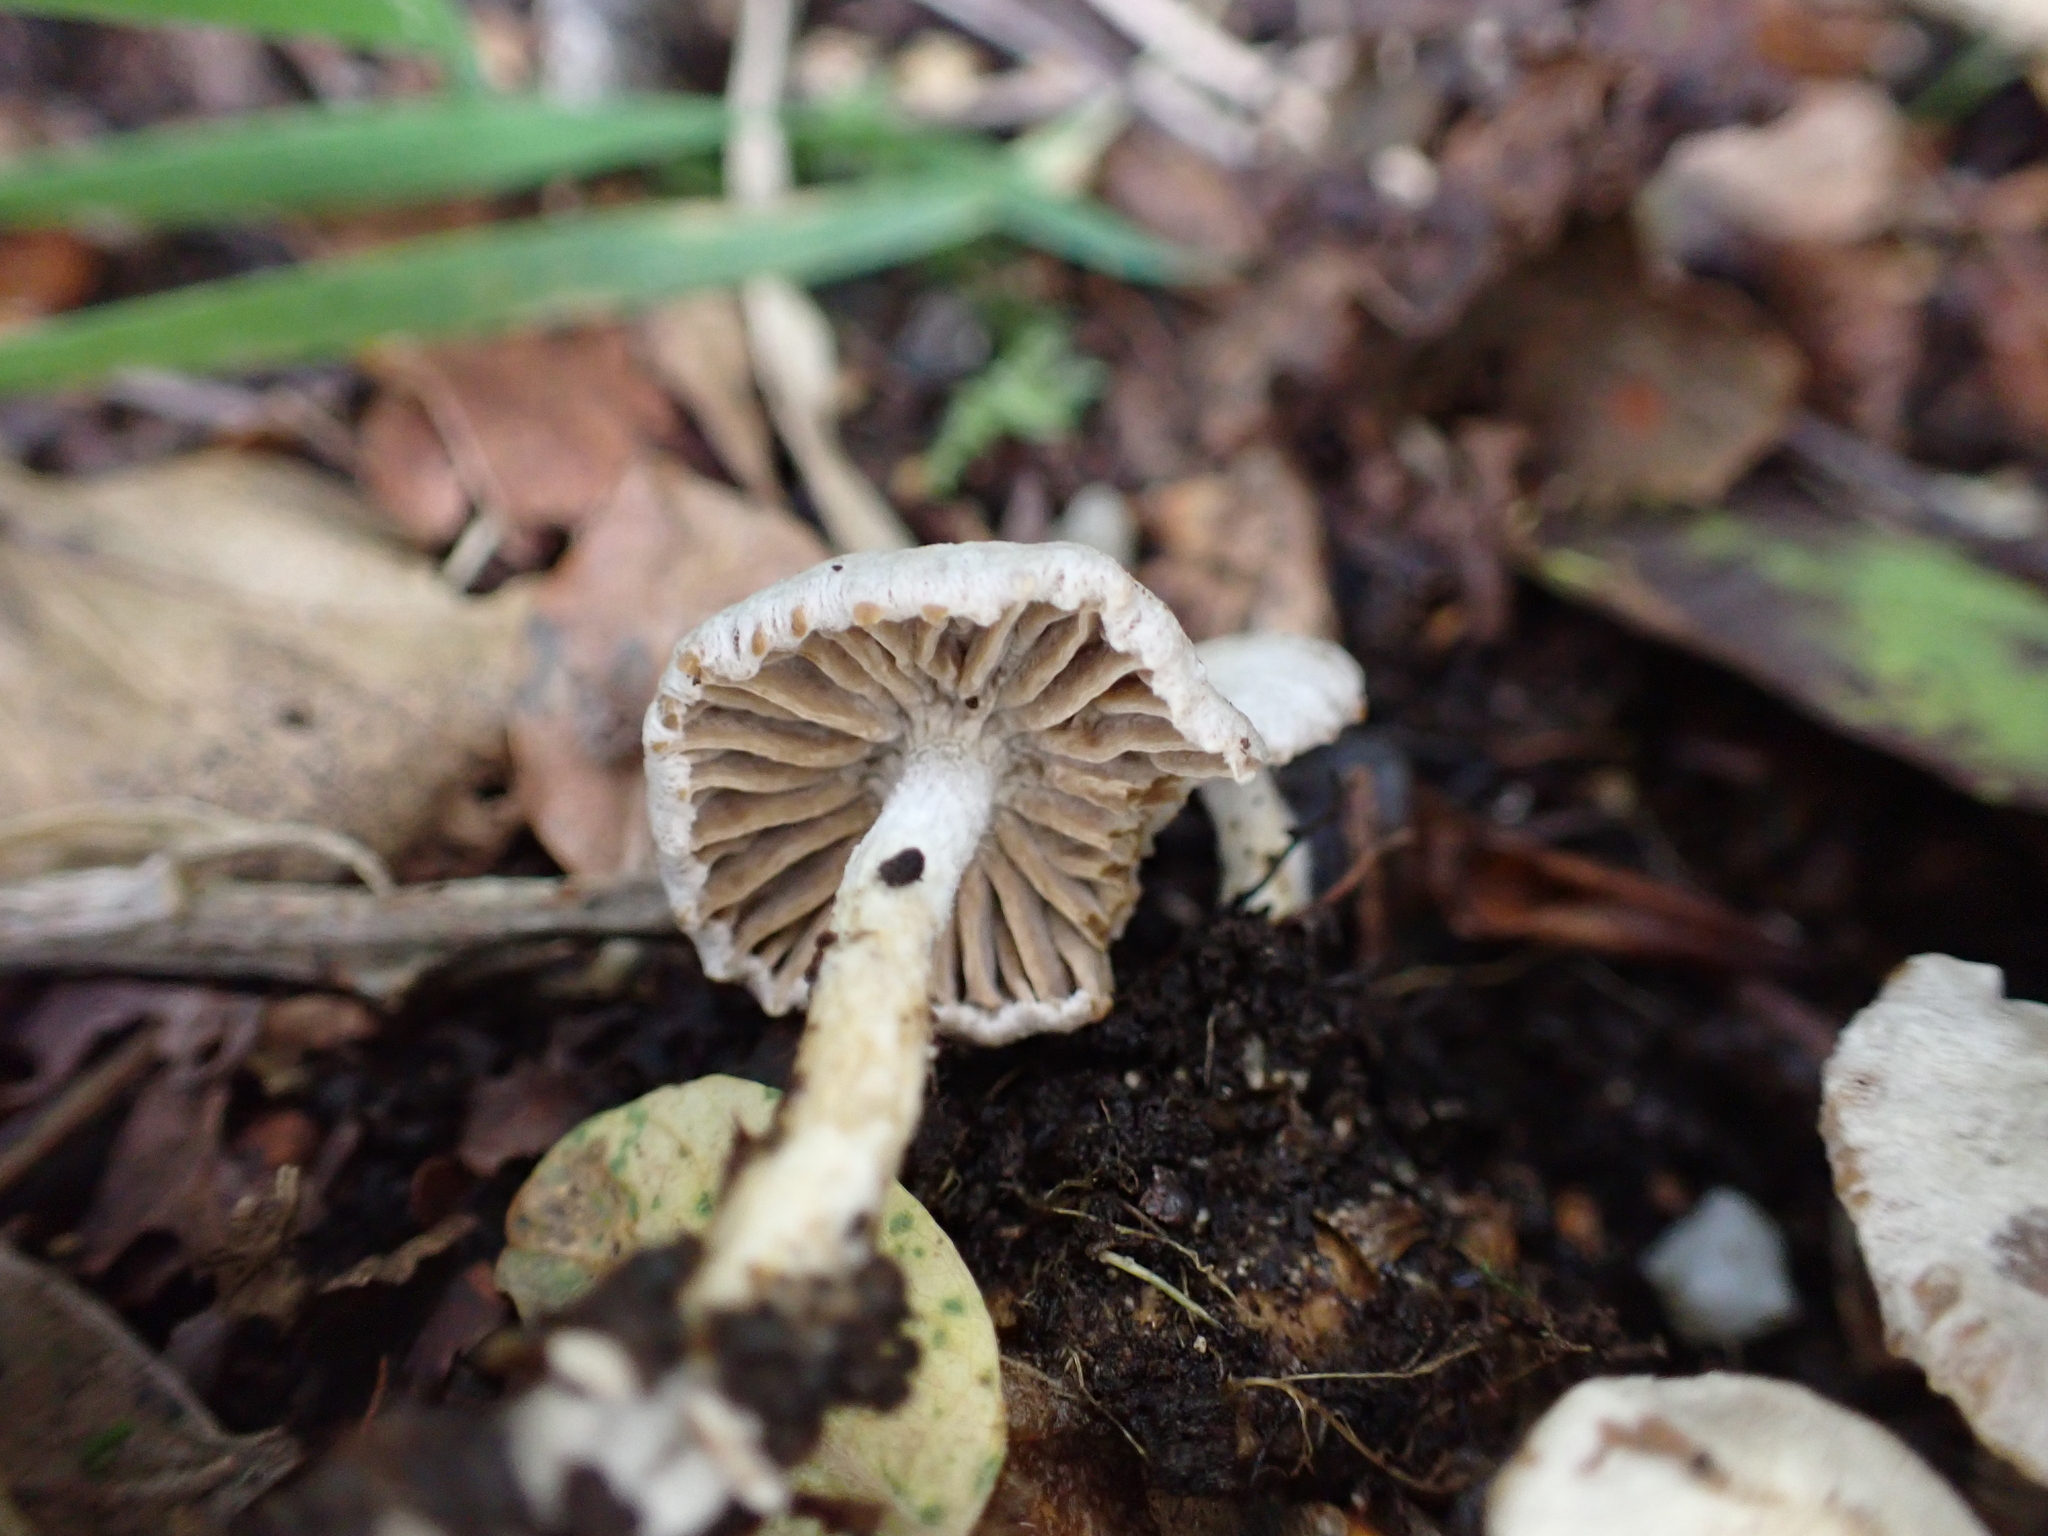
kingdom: Fungi
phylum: Basidiomycota
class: Agaricomycetes
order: Agaricales
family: Lyophyllaceae
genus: Asterophora
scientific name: Asterophora parasitica
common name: Silky piggyback
